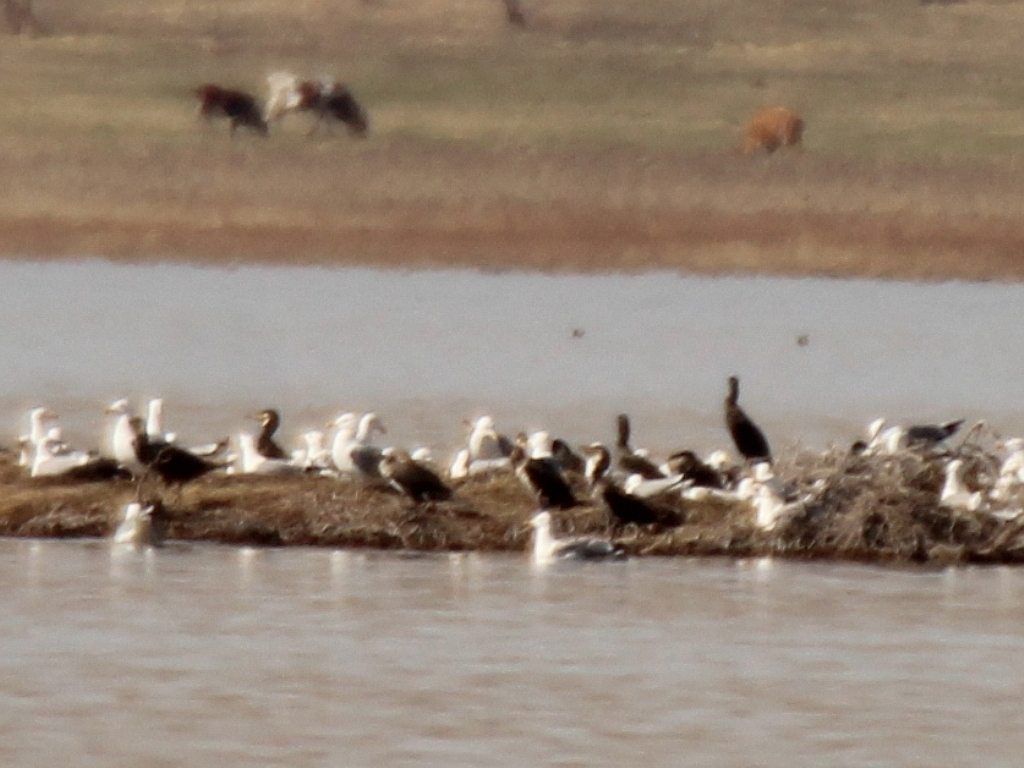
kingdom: Animalia
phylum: Chordata
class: Aves
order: Suliformes
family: Phalacrocoracidae
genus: Phalacrocorax
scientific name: Phalacrocorax carbo
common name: Great cormorant
